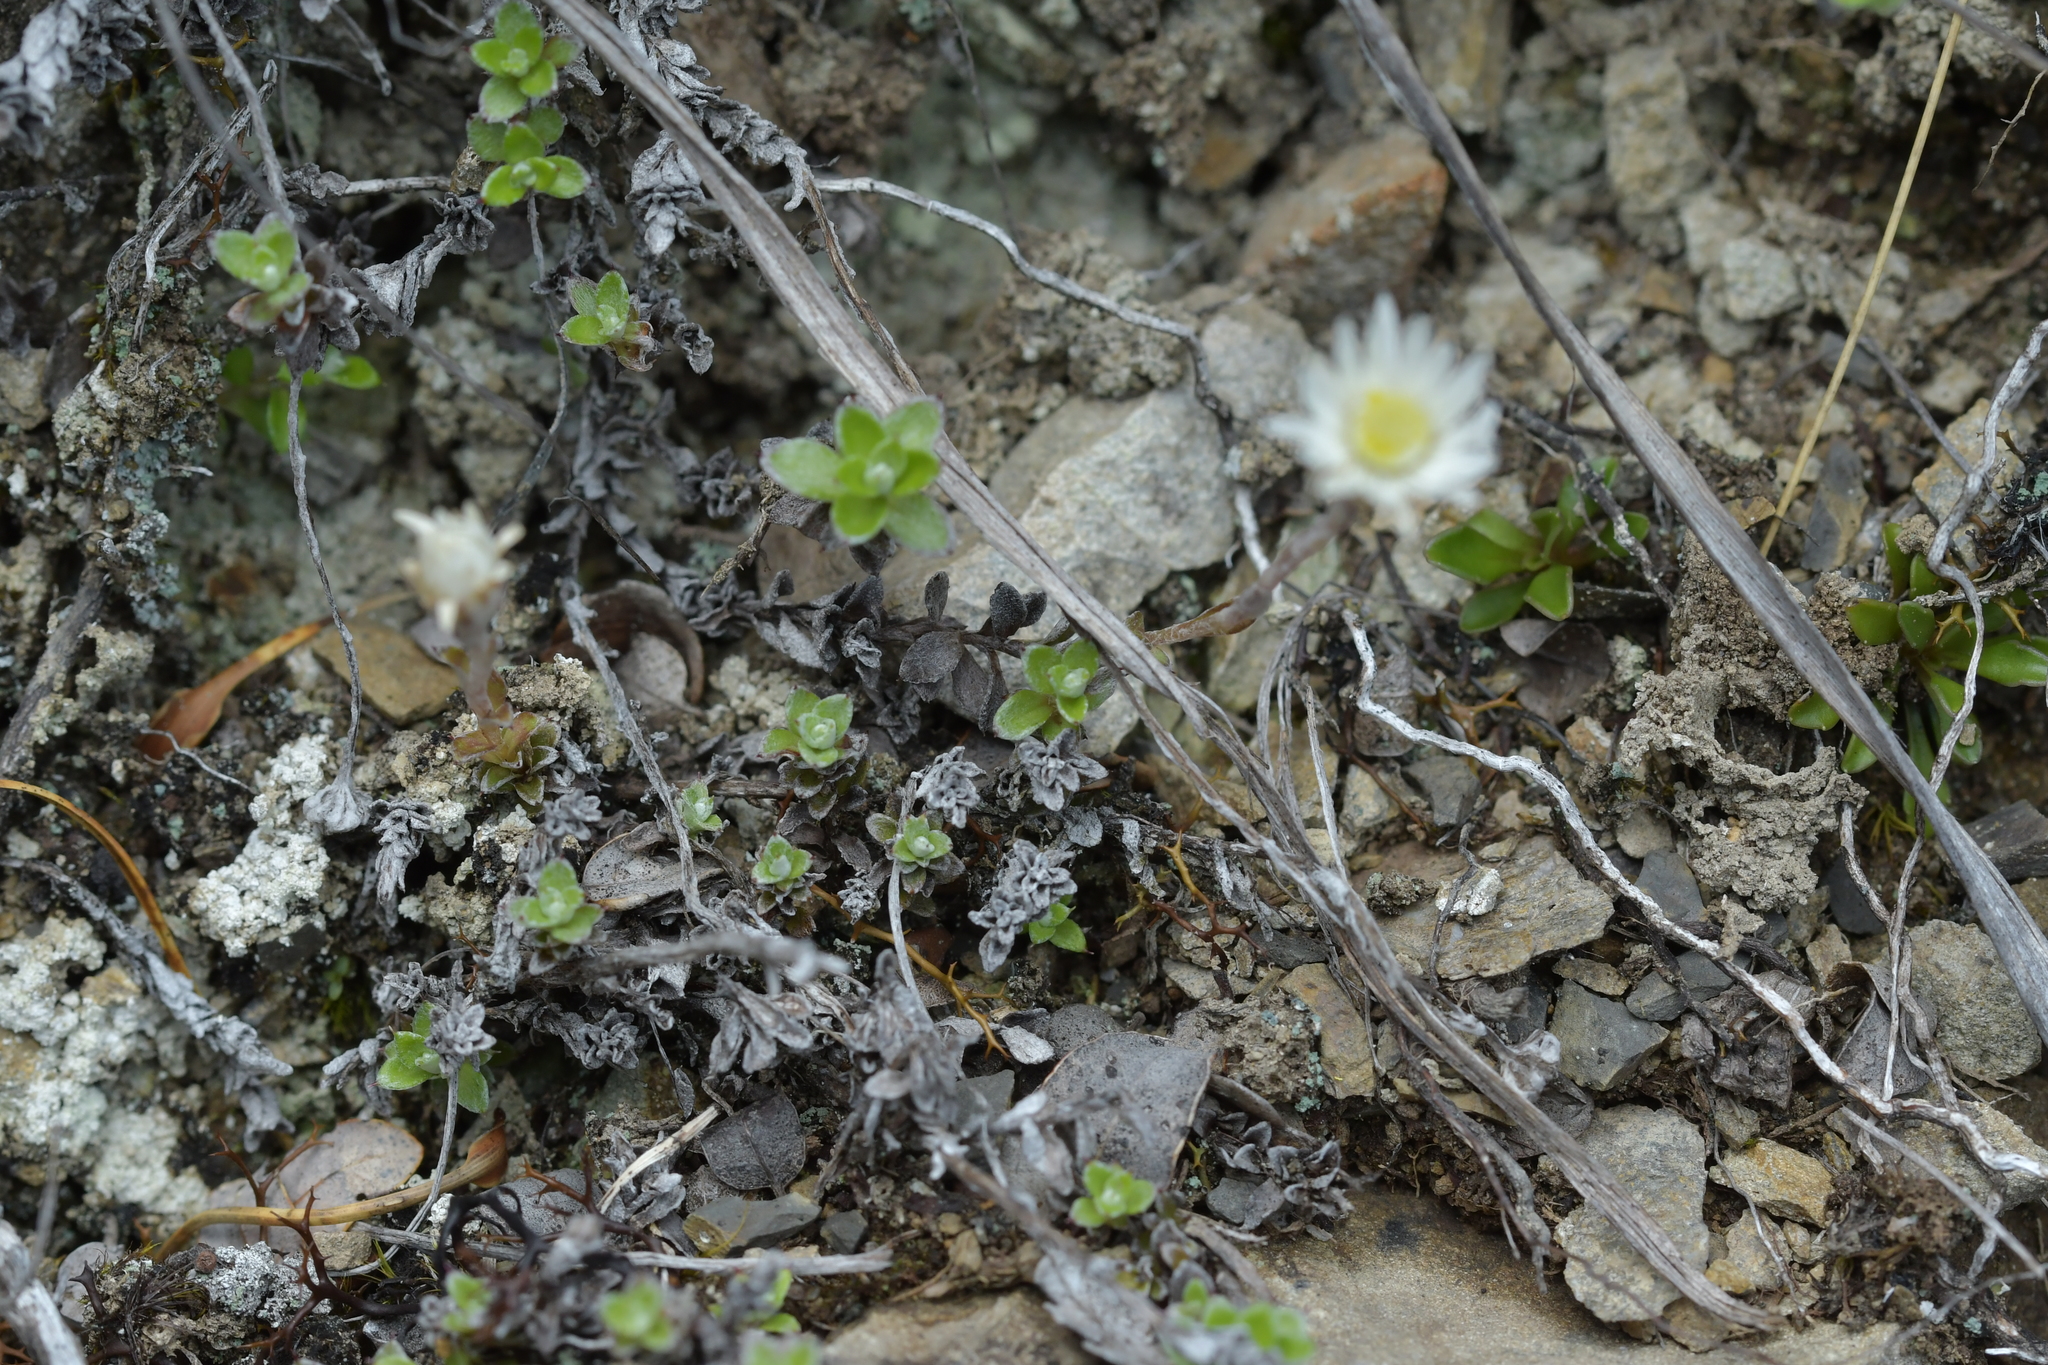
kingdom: Plantae
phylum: Tracheophyta
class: Magnoliopsida
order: Asterales
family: Asteraceae
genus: Anaphalioides
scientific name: Anaphalioides bellidioides
